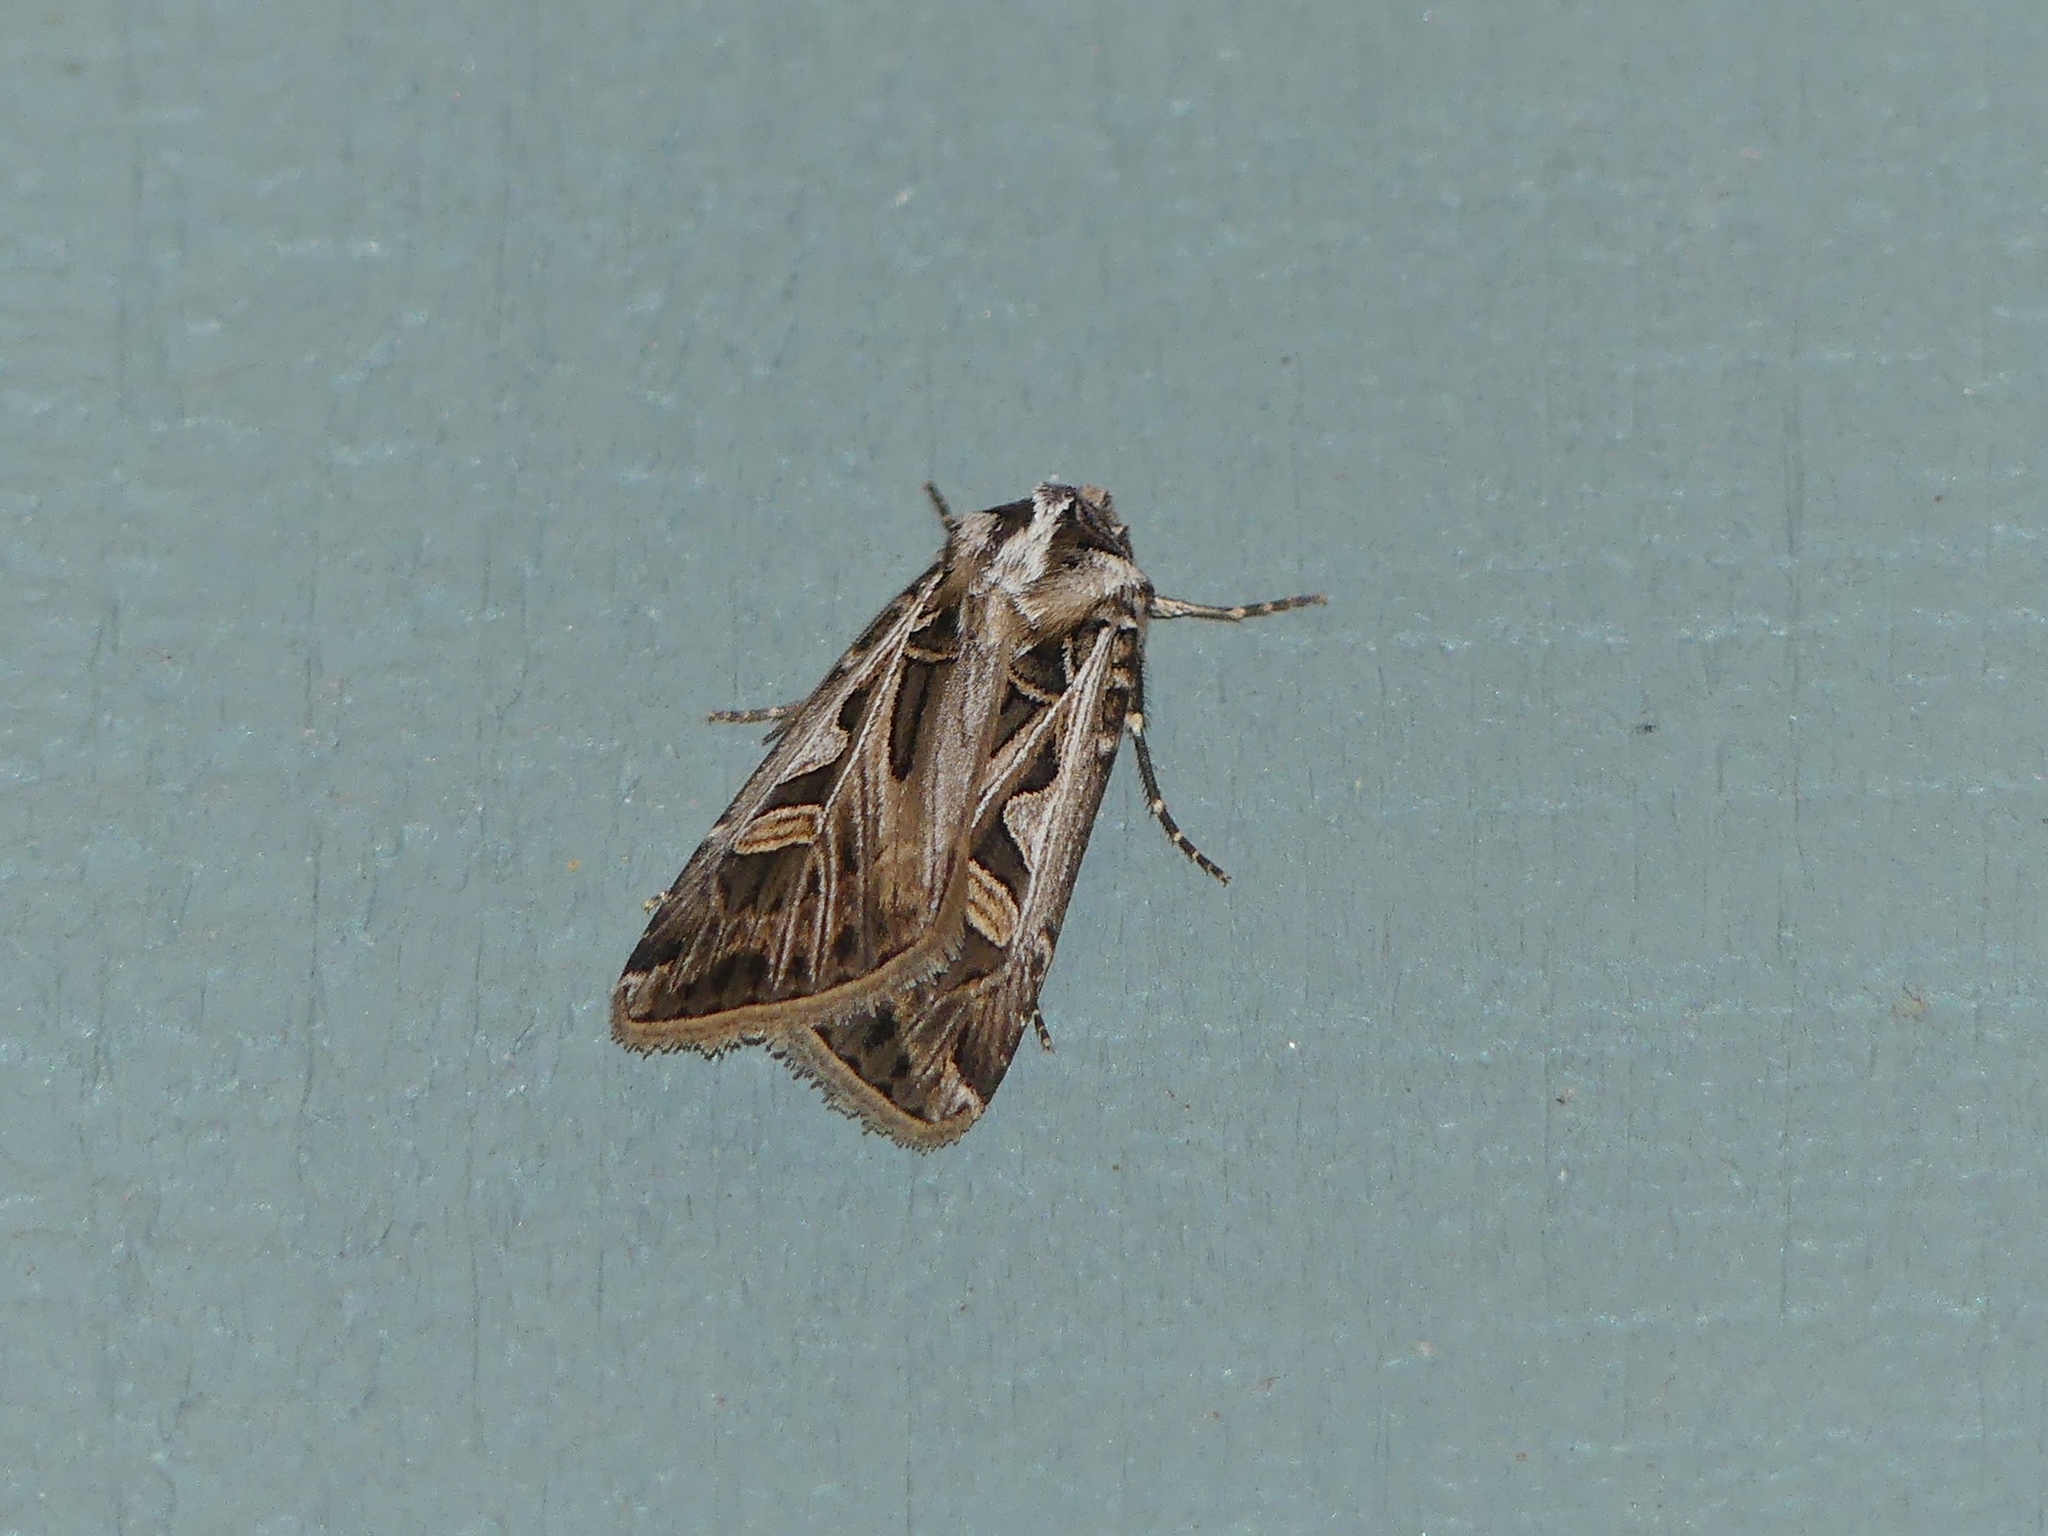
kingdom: Animalia
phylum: Arthropoda
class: Insecta
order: Lepidoptera
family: Noctuidae
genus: Feltia
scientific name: Feltia jaculifera
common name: Dingy cutworm moth
